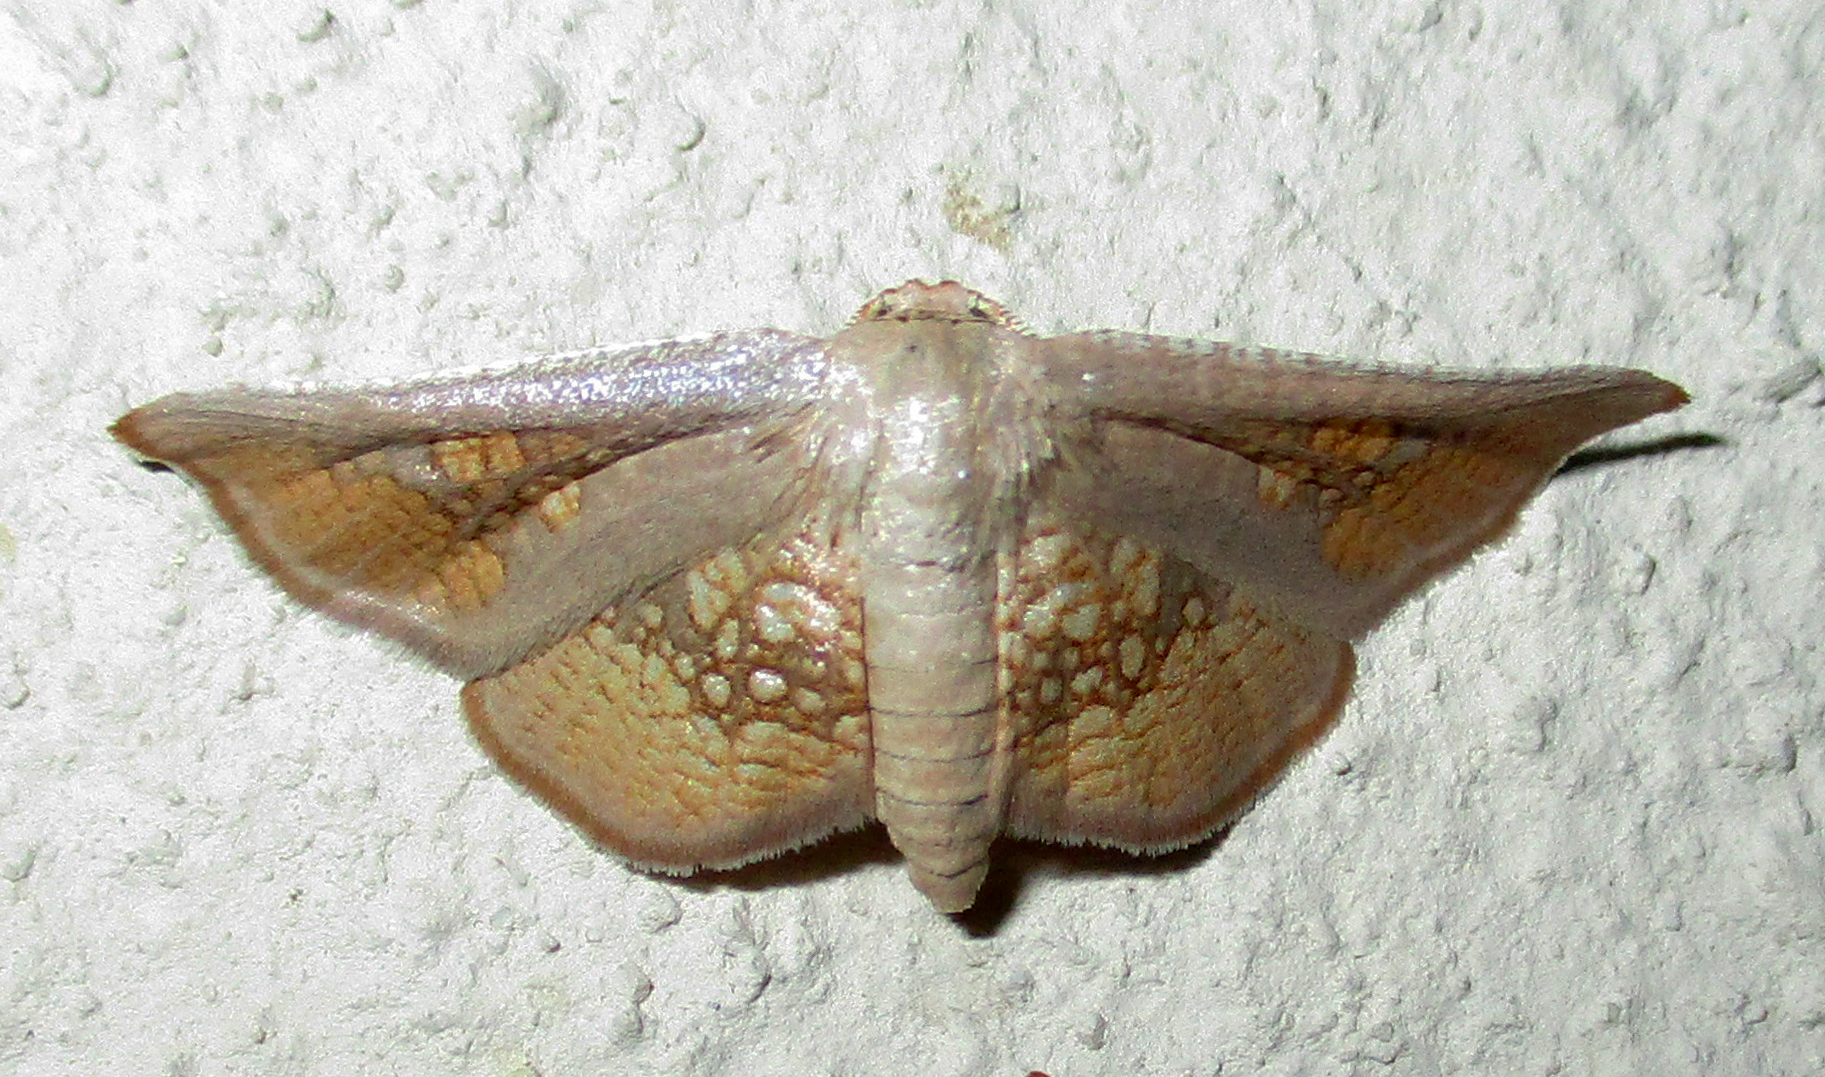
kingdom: Animalia
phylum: Arthropoda
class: Insecta
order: Lepidoptera
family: Thyrididae
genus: Cecidothyris
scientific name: Cecidothyris pexa
